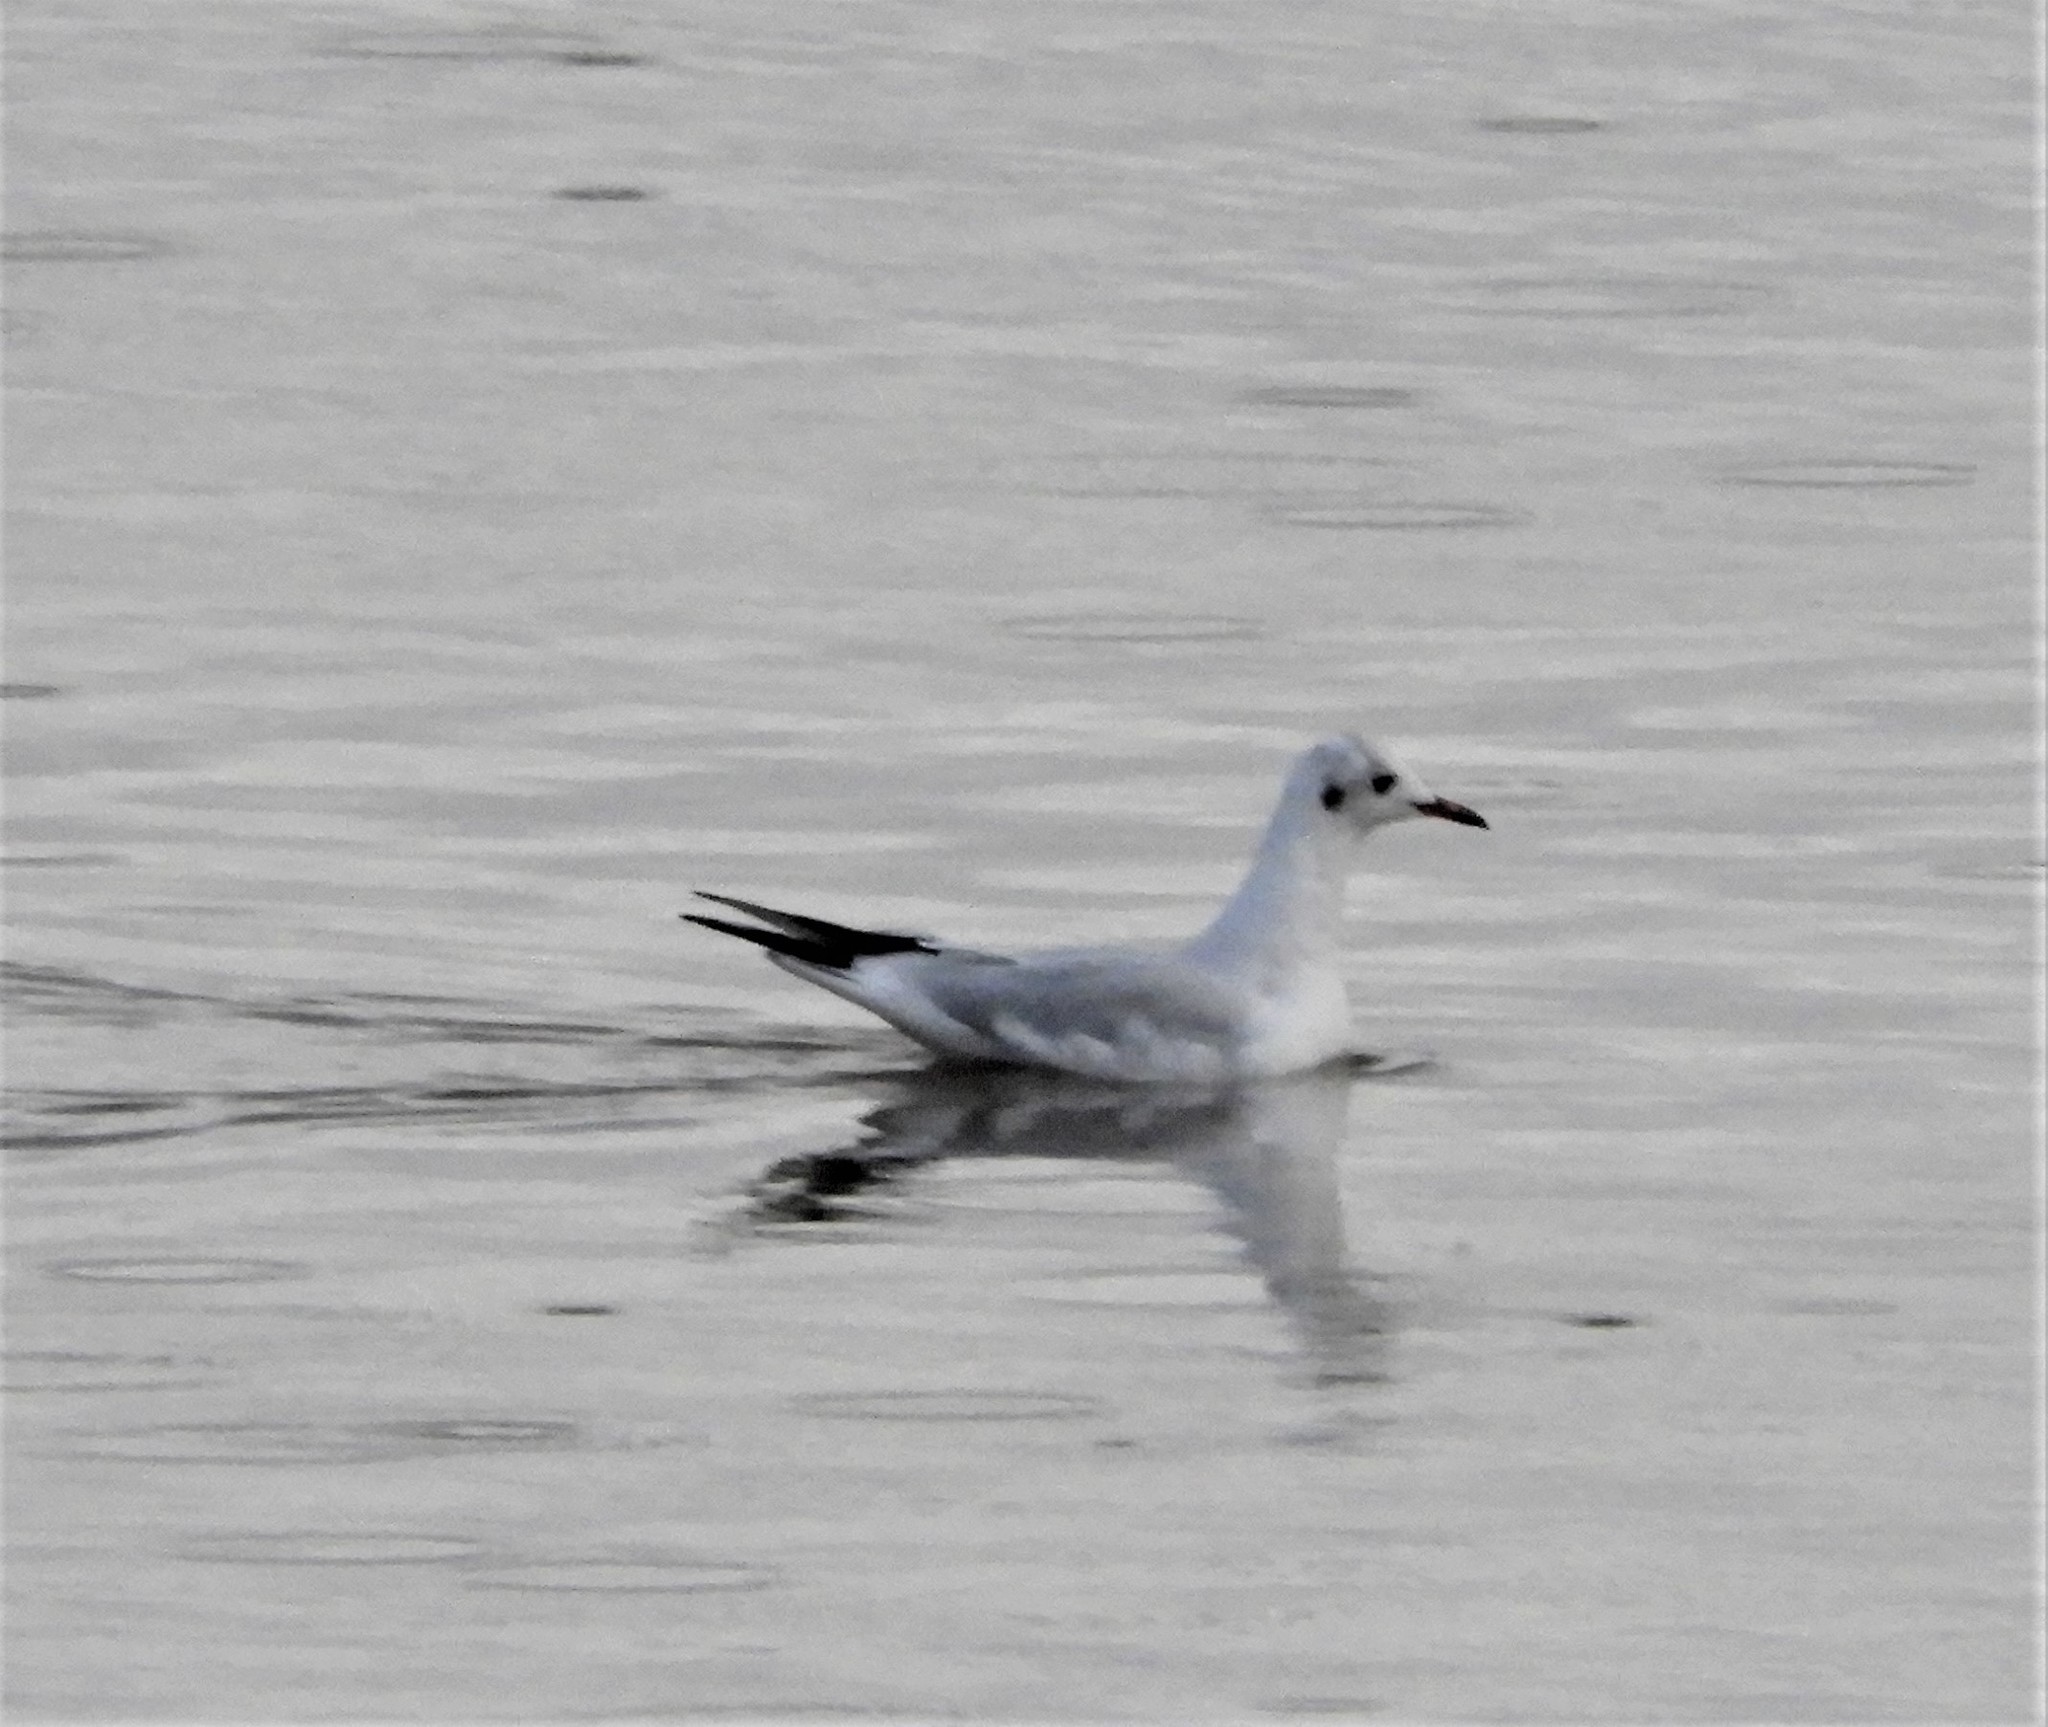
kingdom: Animalia
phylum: Chordata
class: Aves
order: Charadriiformes
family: Laridae
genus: Chroicocephalus
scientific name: Chroicocephalus ridibundus
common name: Black-headed gull
